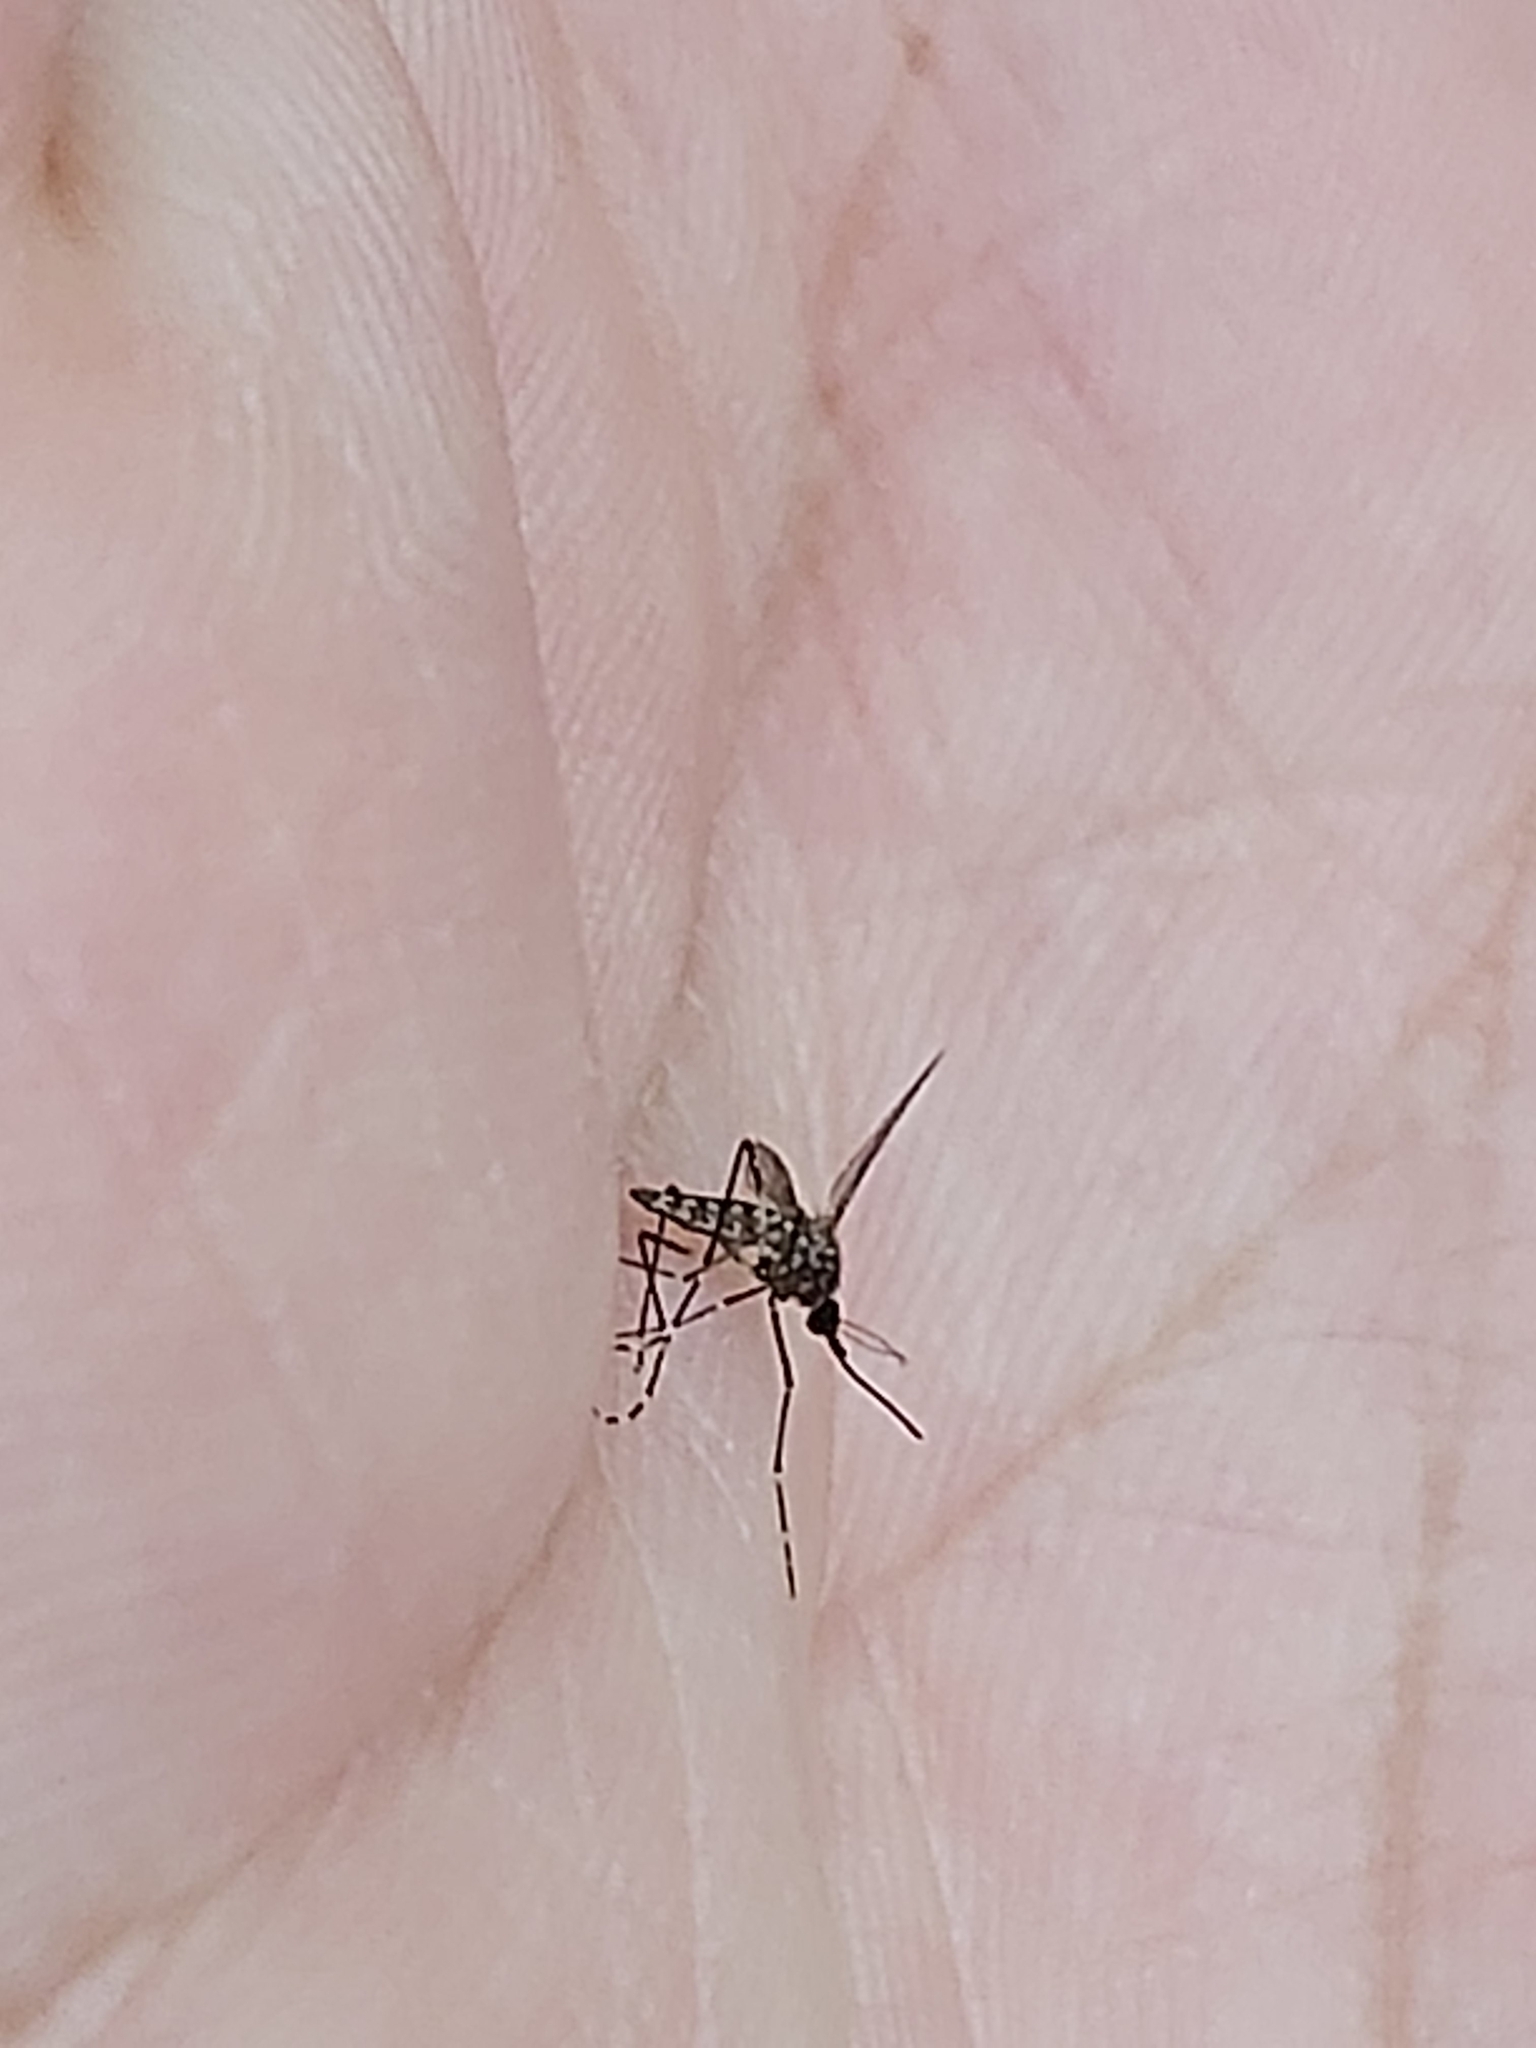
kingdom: Animalia
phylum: Arthropoda
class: Insecta
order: Diptera
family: Culicidae
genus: Aedes
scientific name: Aedes alboannulatus
